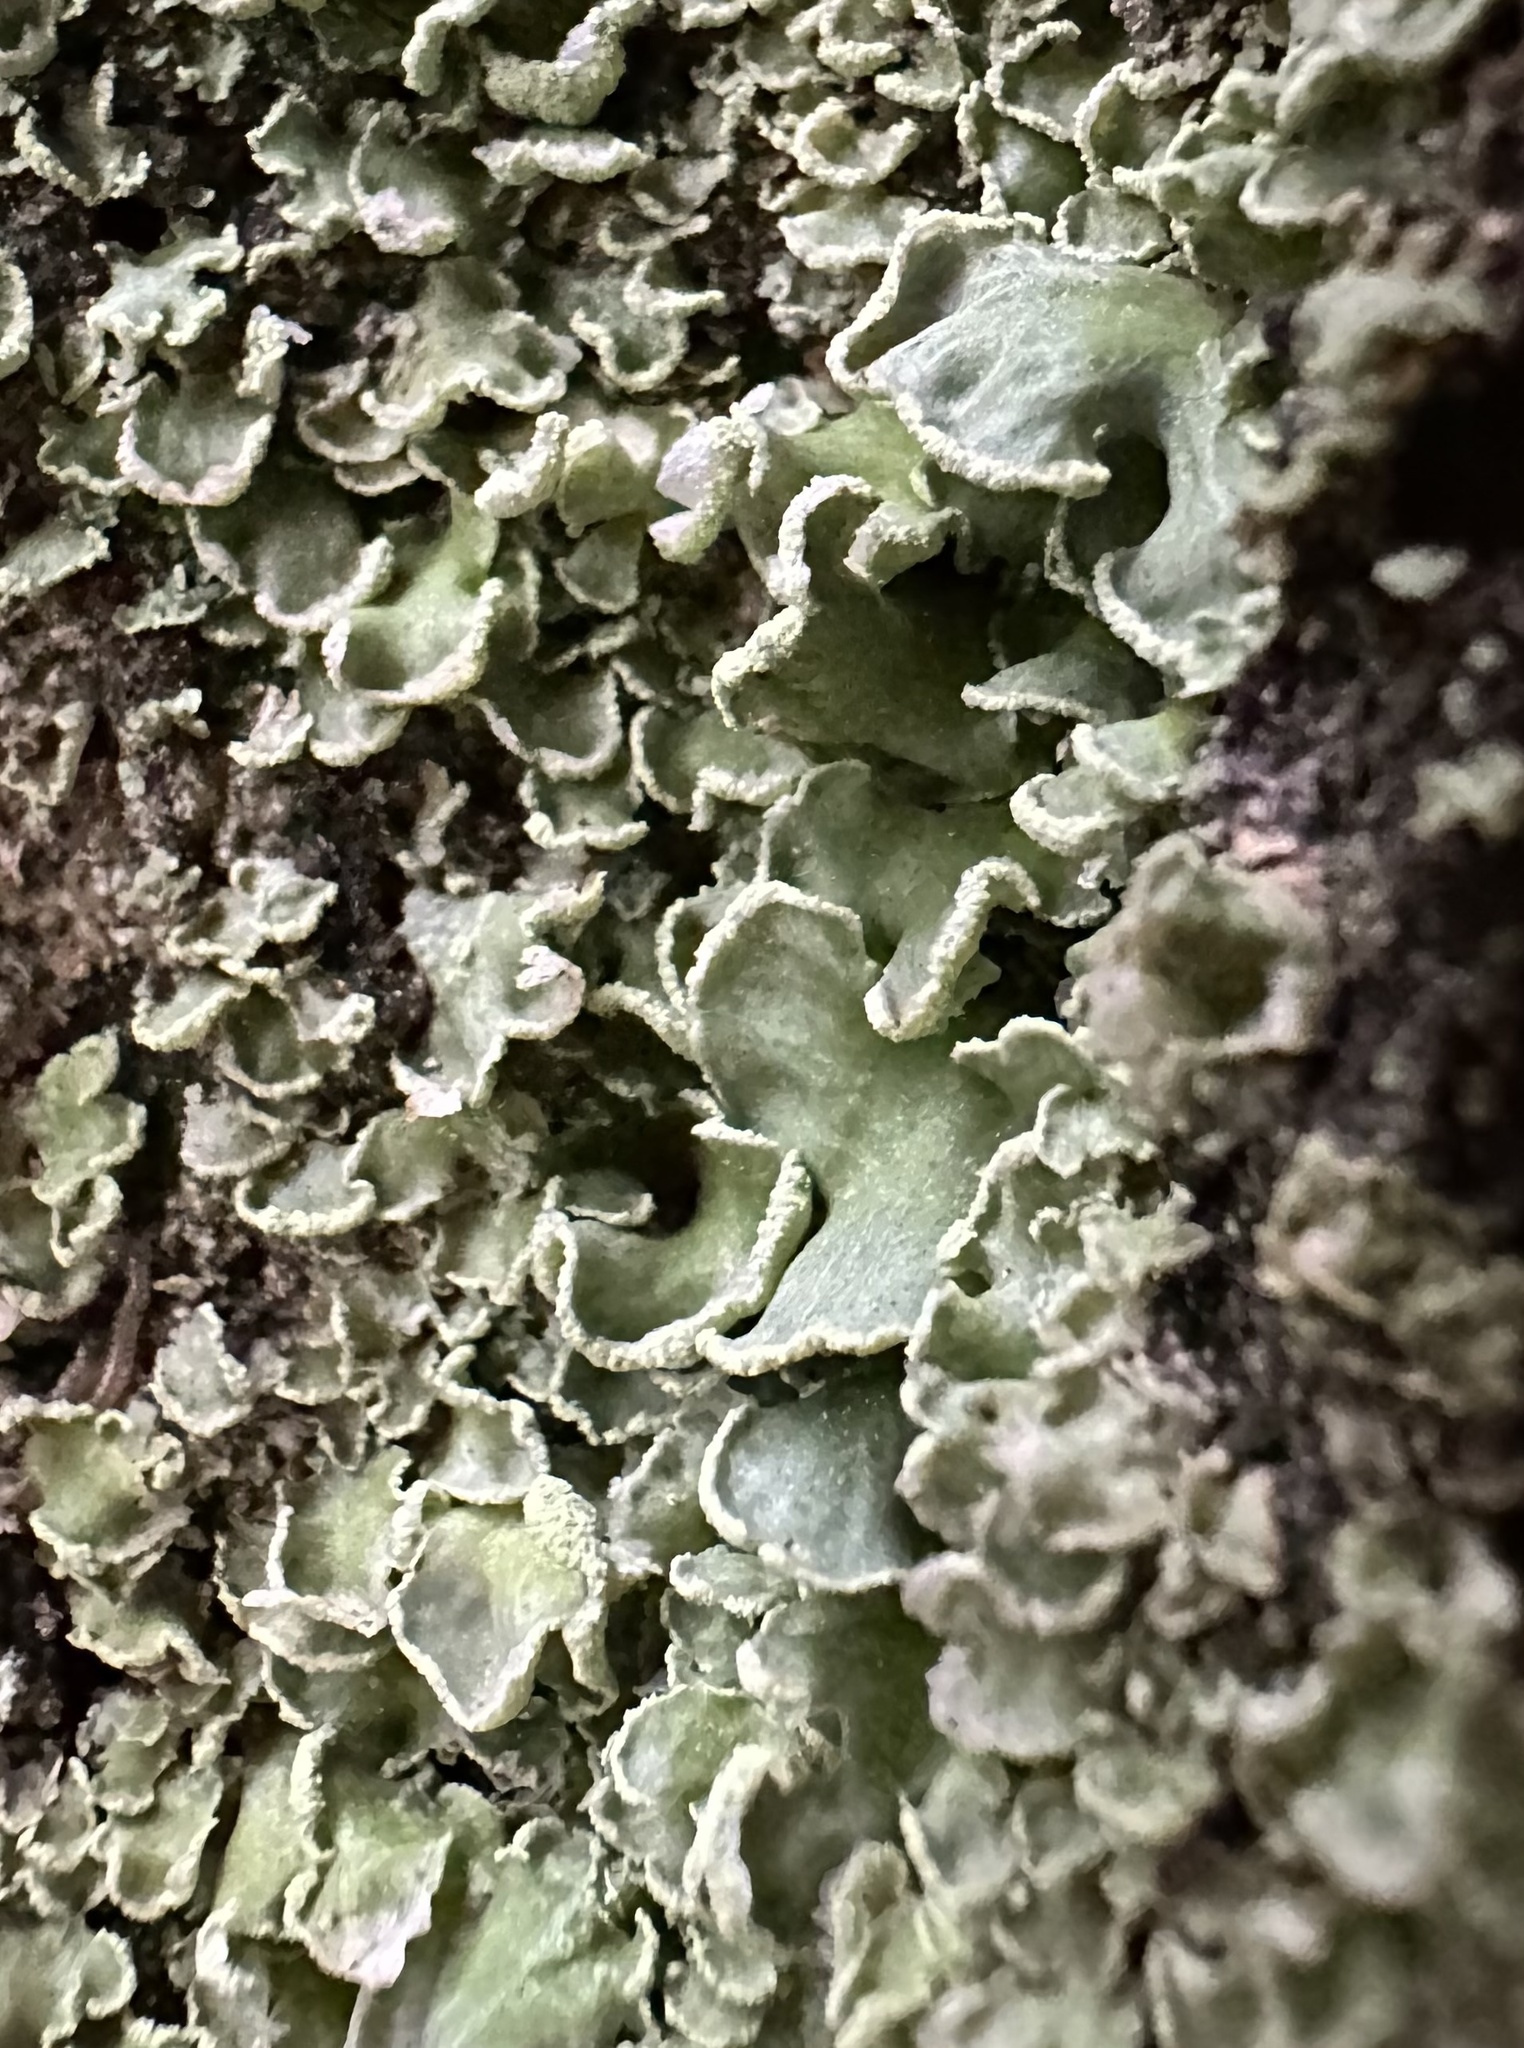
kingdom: Fungi
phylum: Ascomycota
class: Lecanoromycetes
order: Lecanorales
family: Cladoniaceae
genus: Cladonia
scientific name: Cladonia digitata
